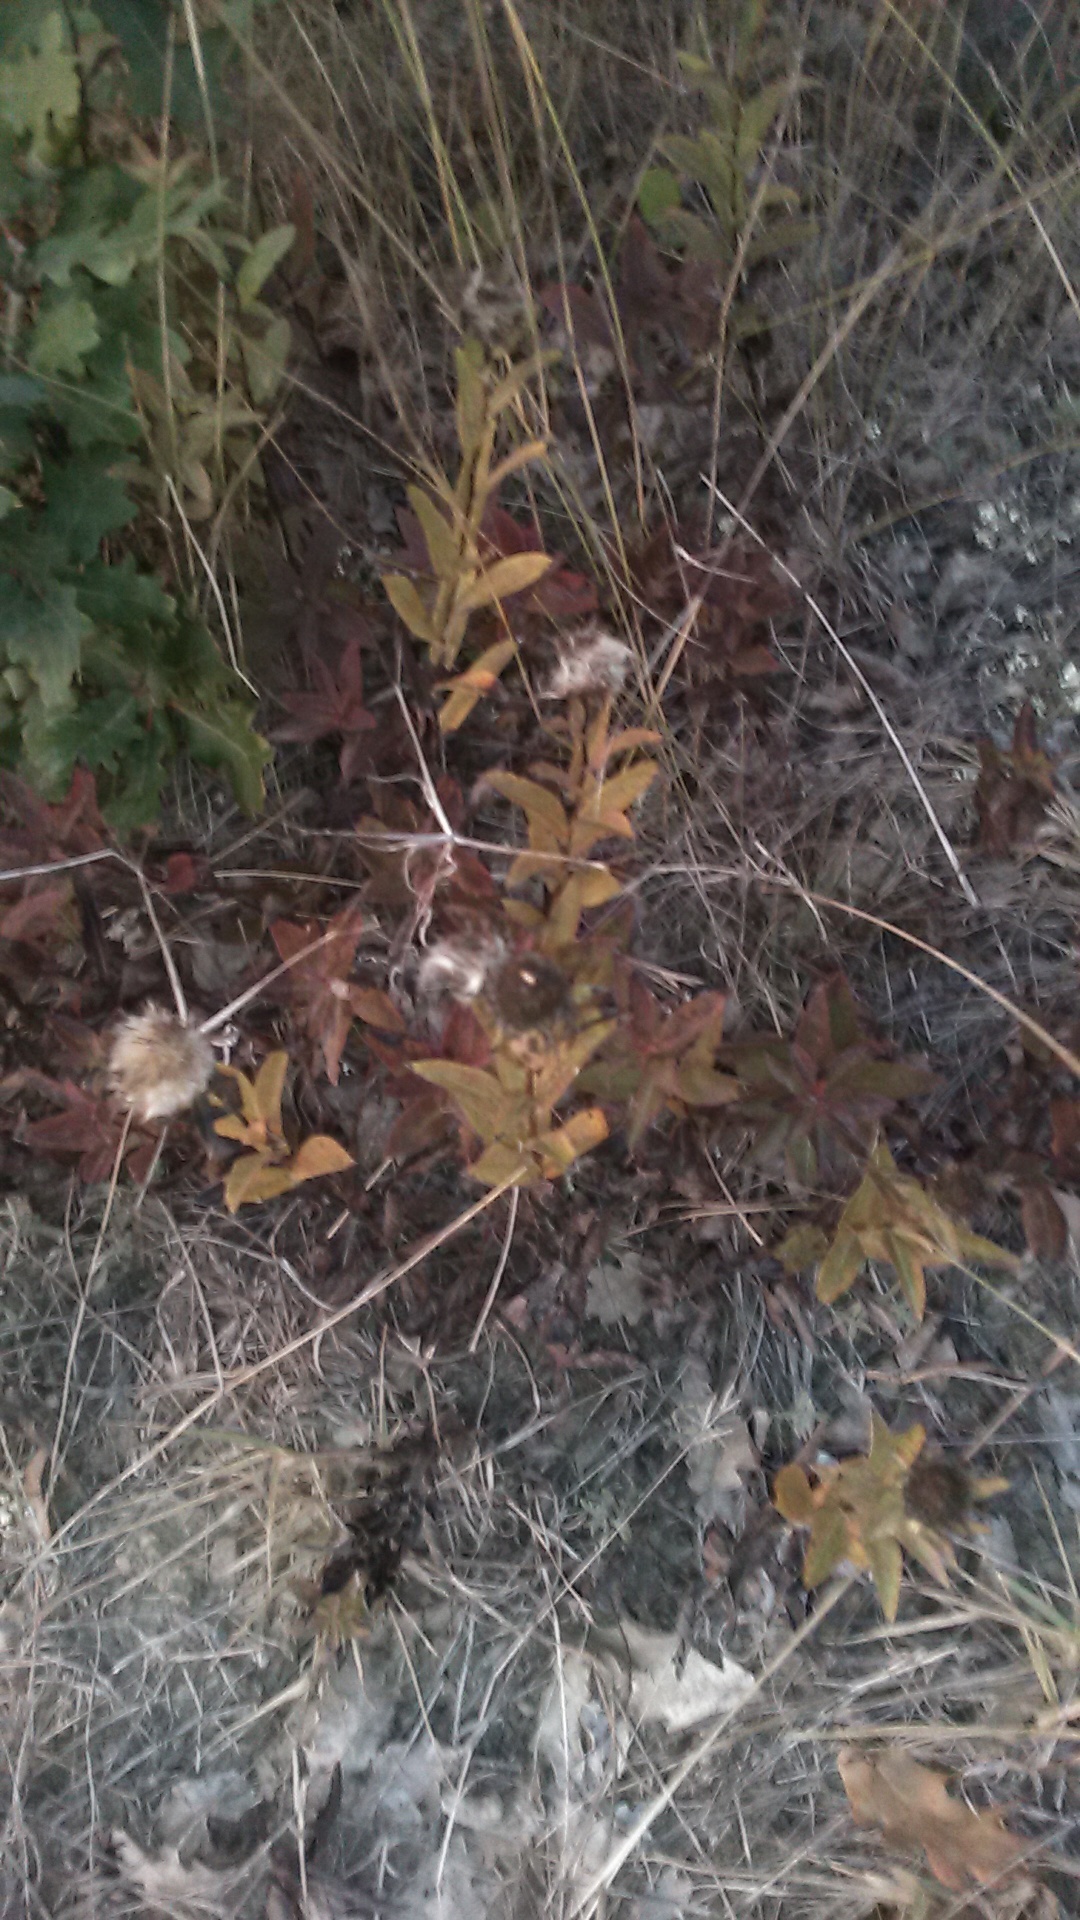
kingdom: Plantae
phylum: Tracheophyta
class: Magnoliopsida
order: Asterales
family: Asteraceae
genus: Pentanema
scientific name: Pentanema ensifolium
